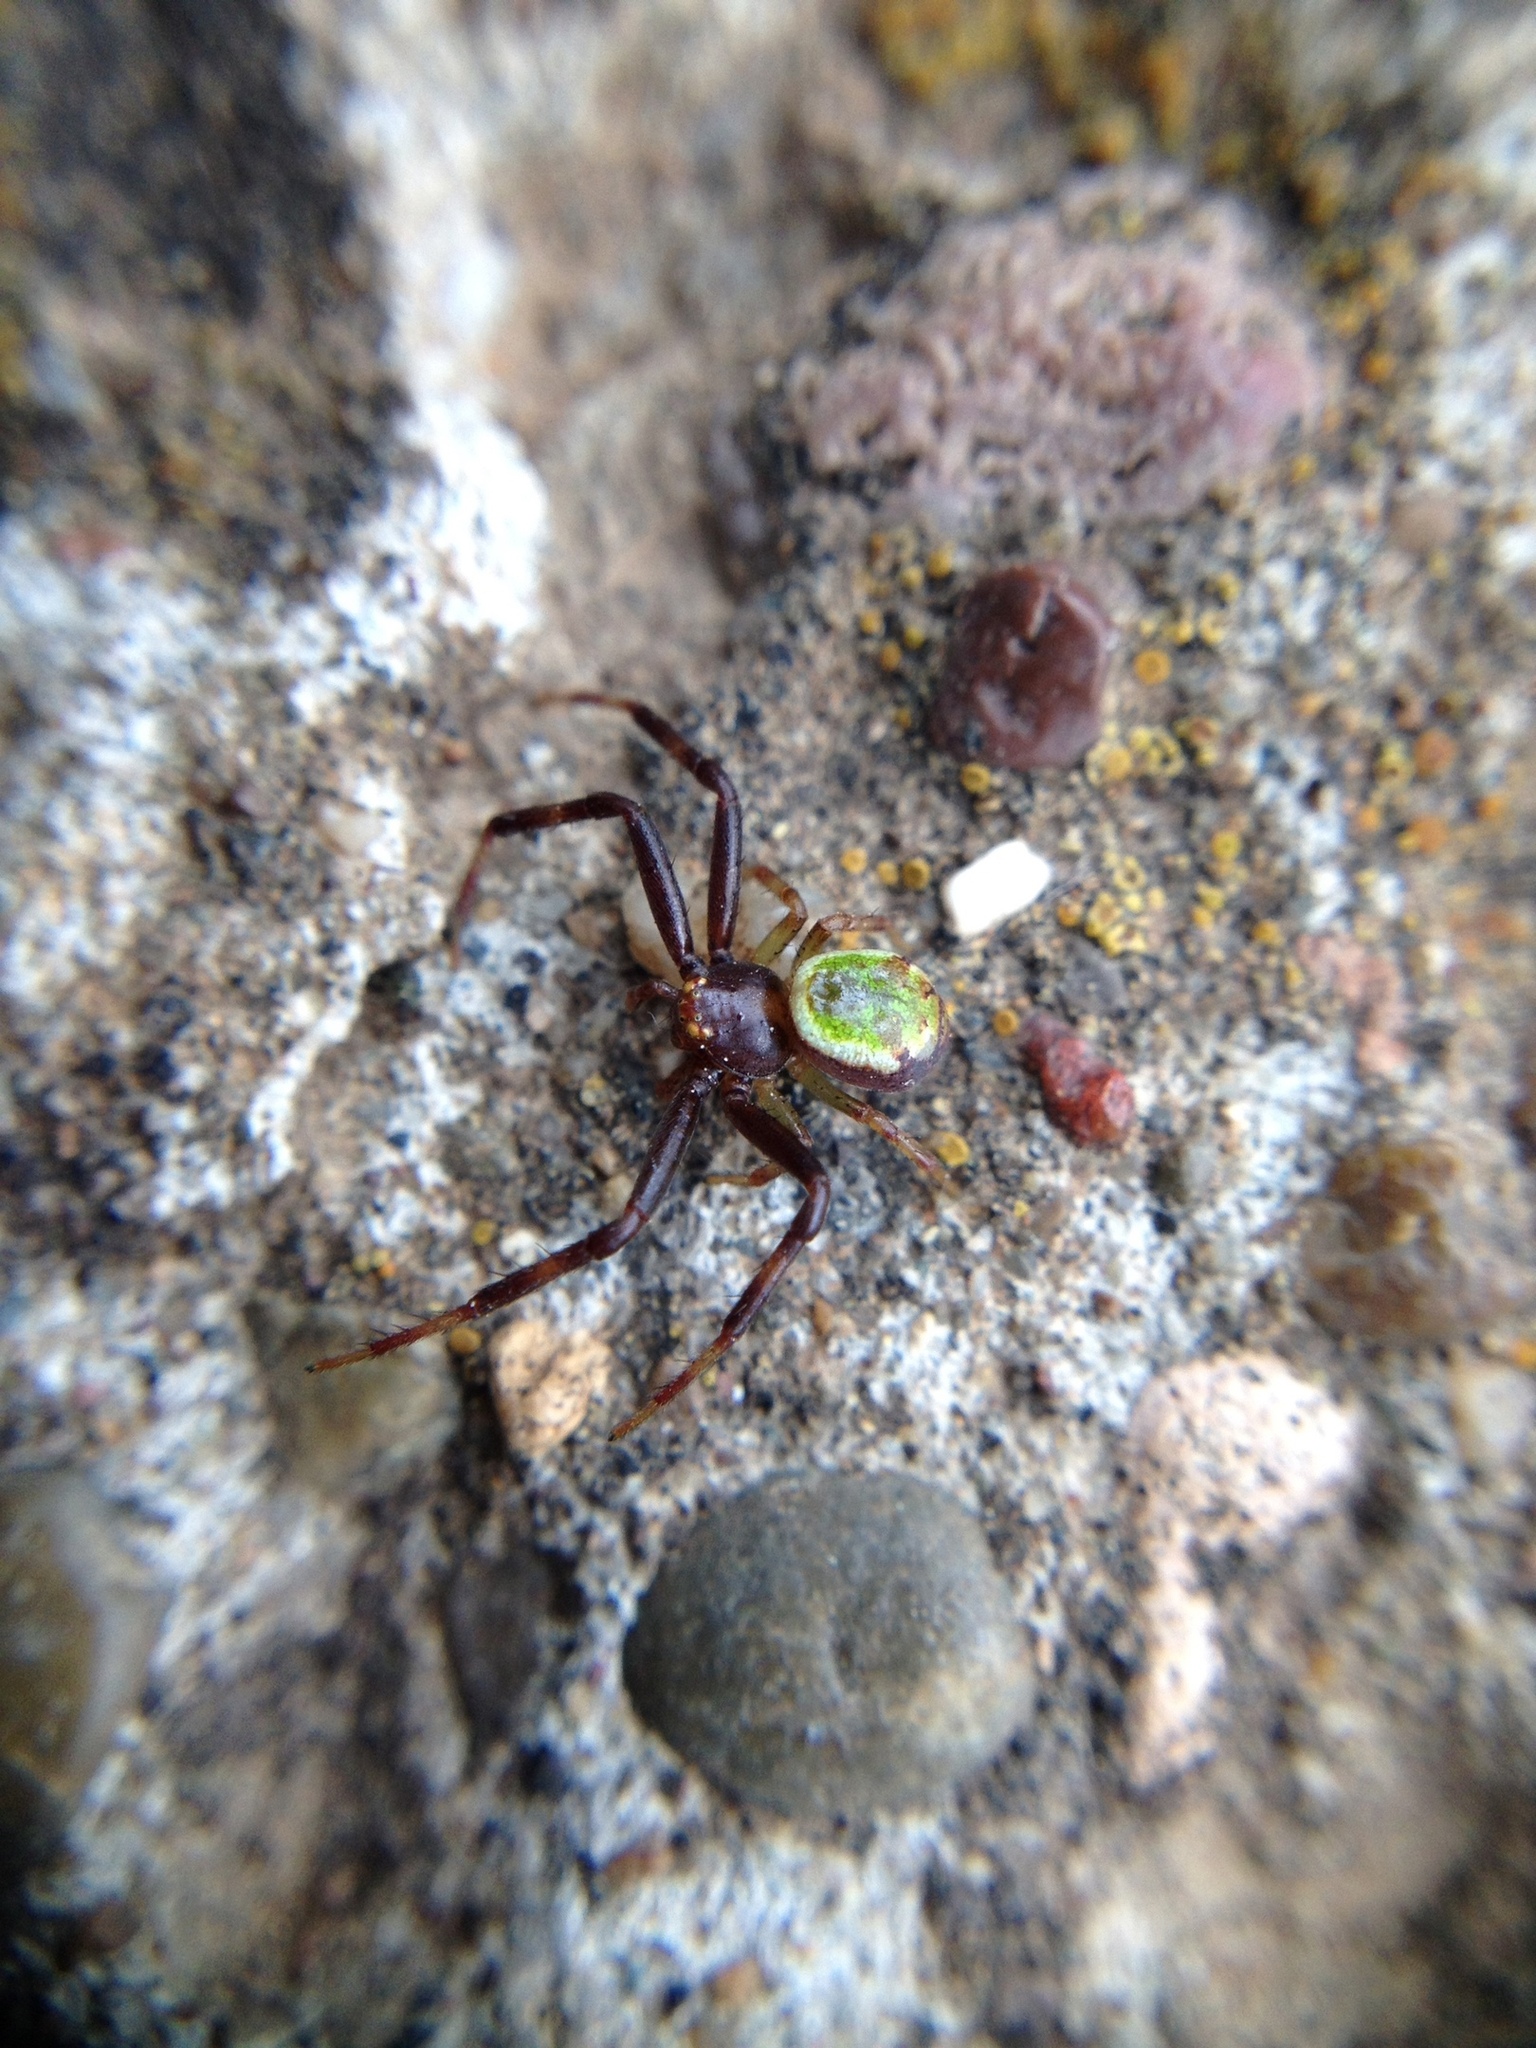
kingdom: Animalia
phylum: Arthropoda
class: Arachnida
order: Araneae
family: Thomisidae
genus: Ebrechtella
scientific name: Ebrechtella tricuspidata
